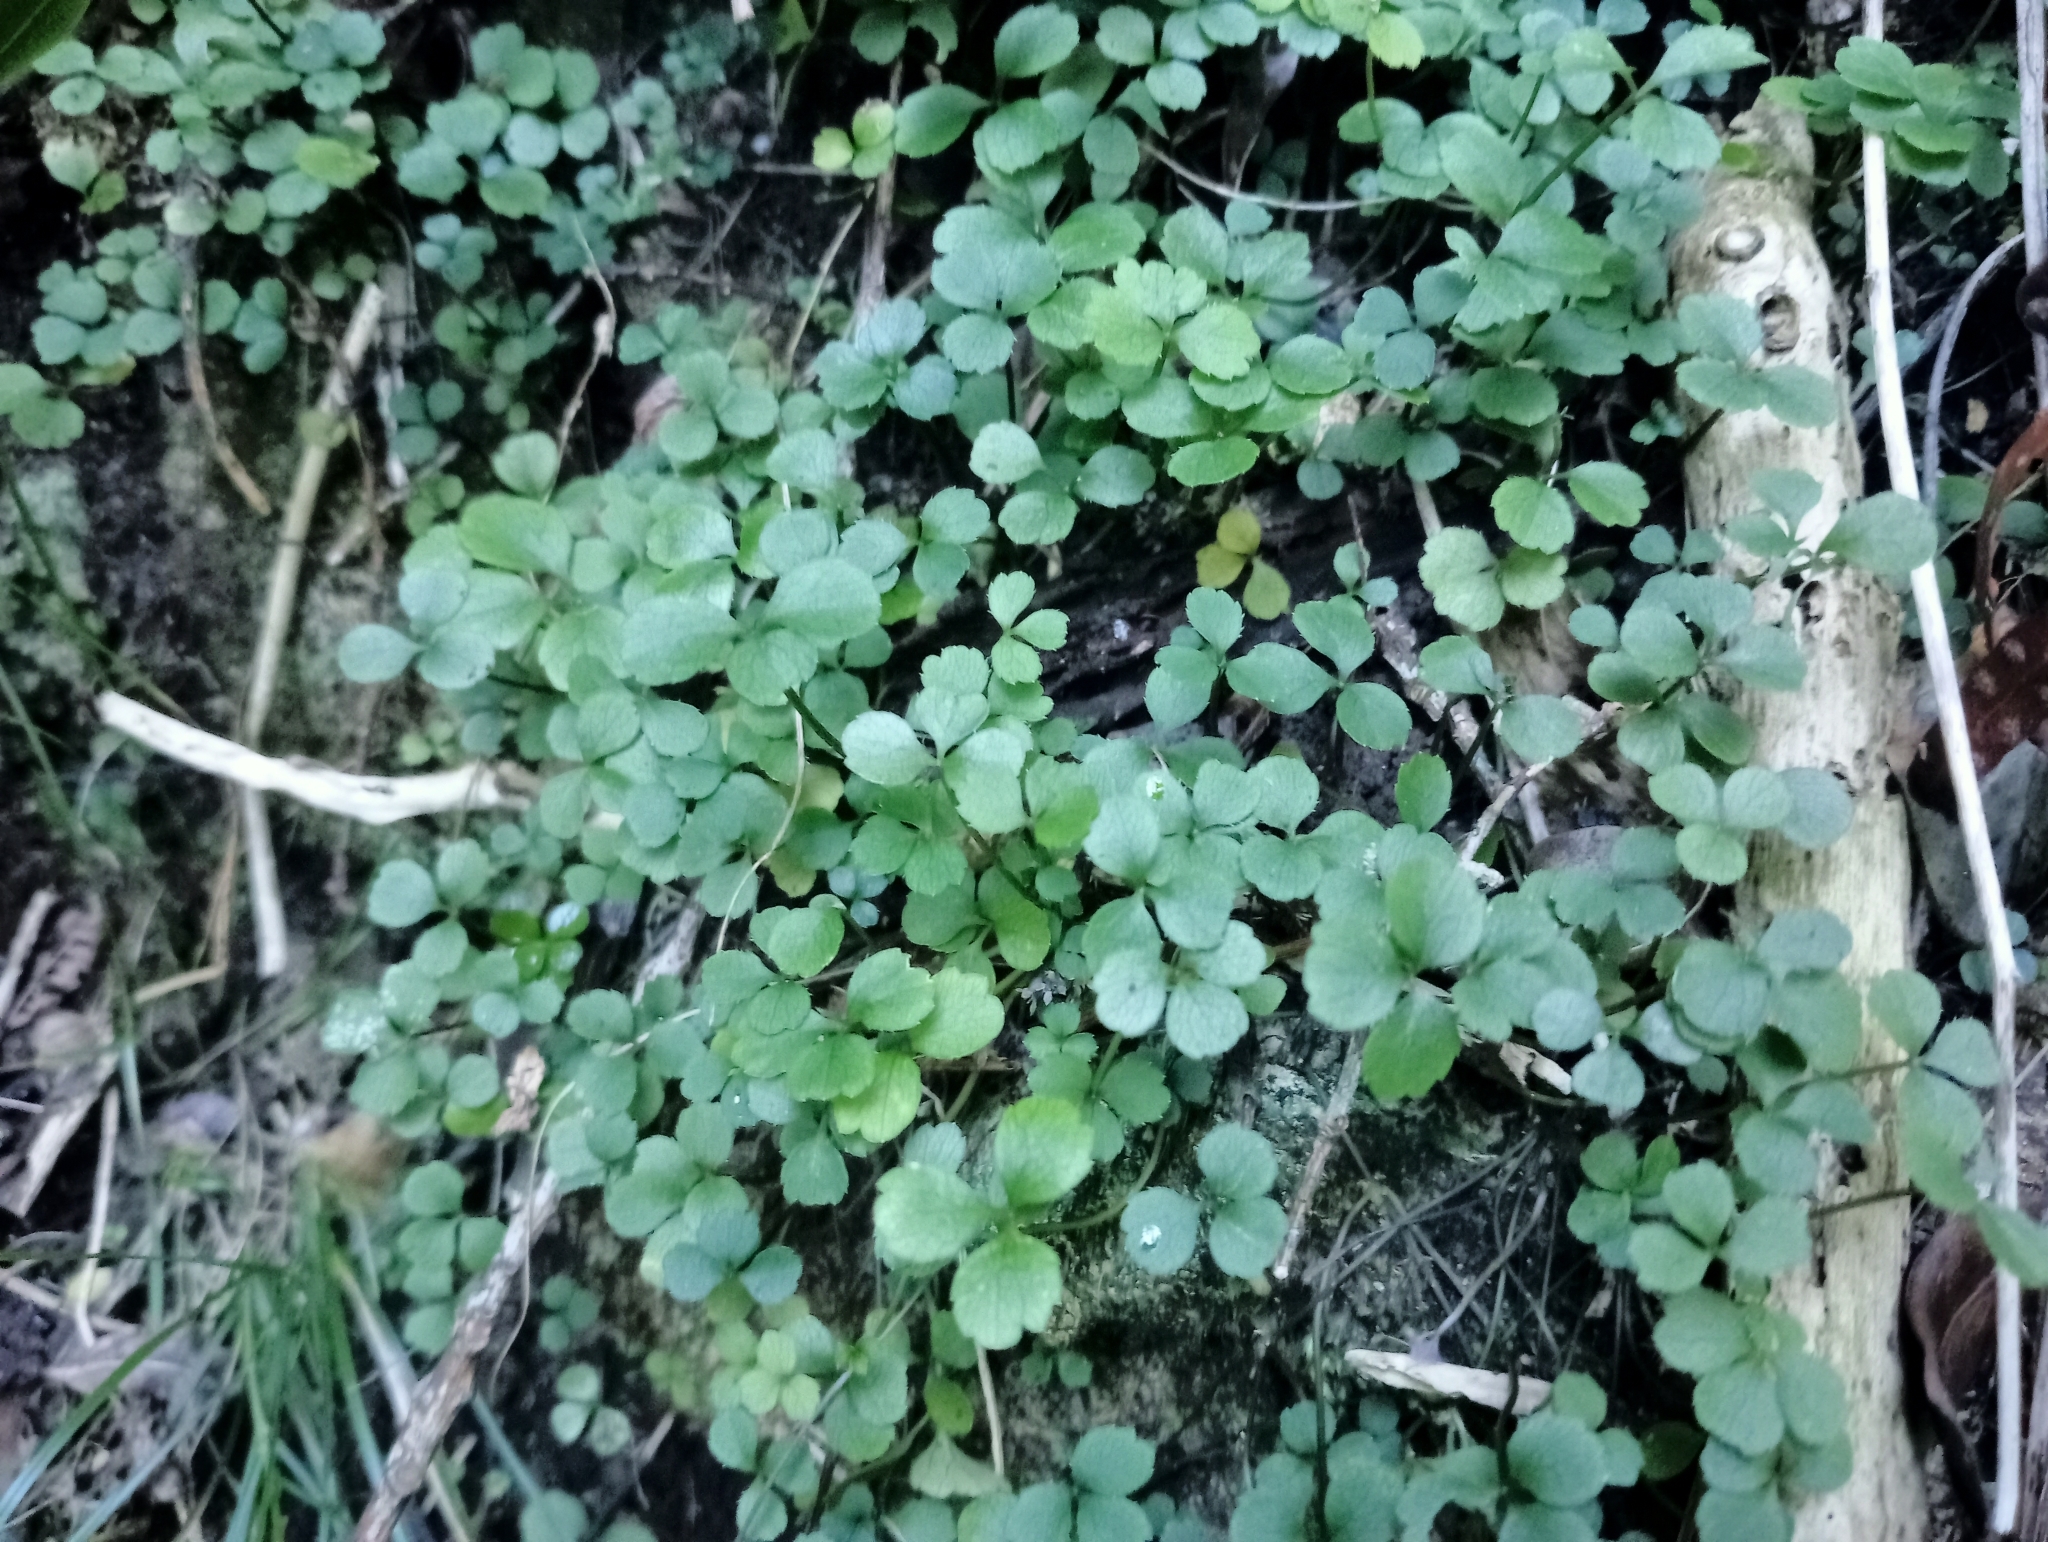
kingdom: Plantae
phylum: Tracheophyta
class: Magnoliopsida
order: Apiales
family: Apiaceae
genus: Azorella
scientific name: Azorella hookeri
